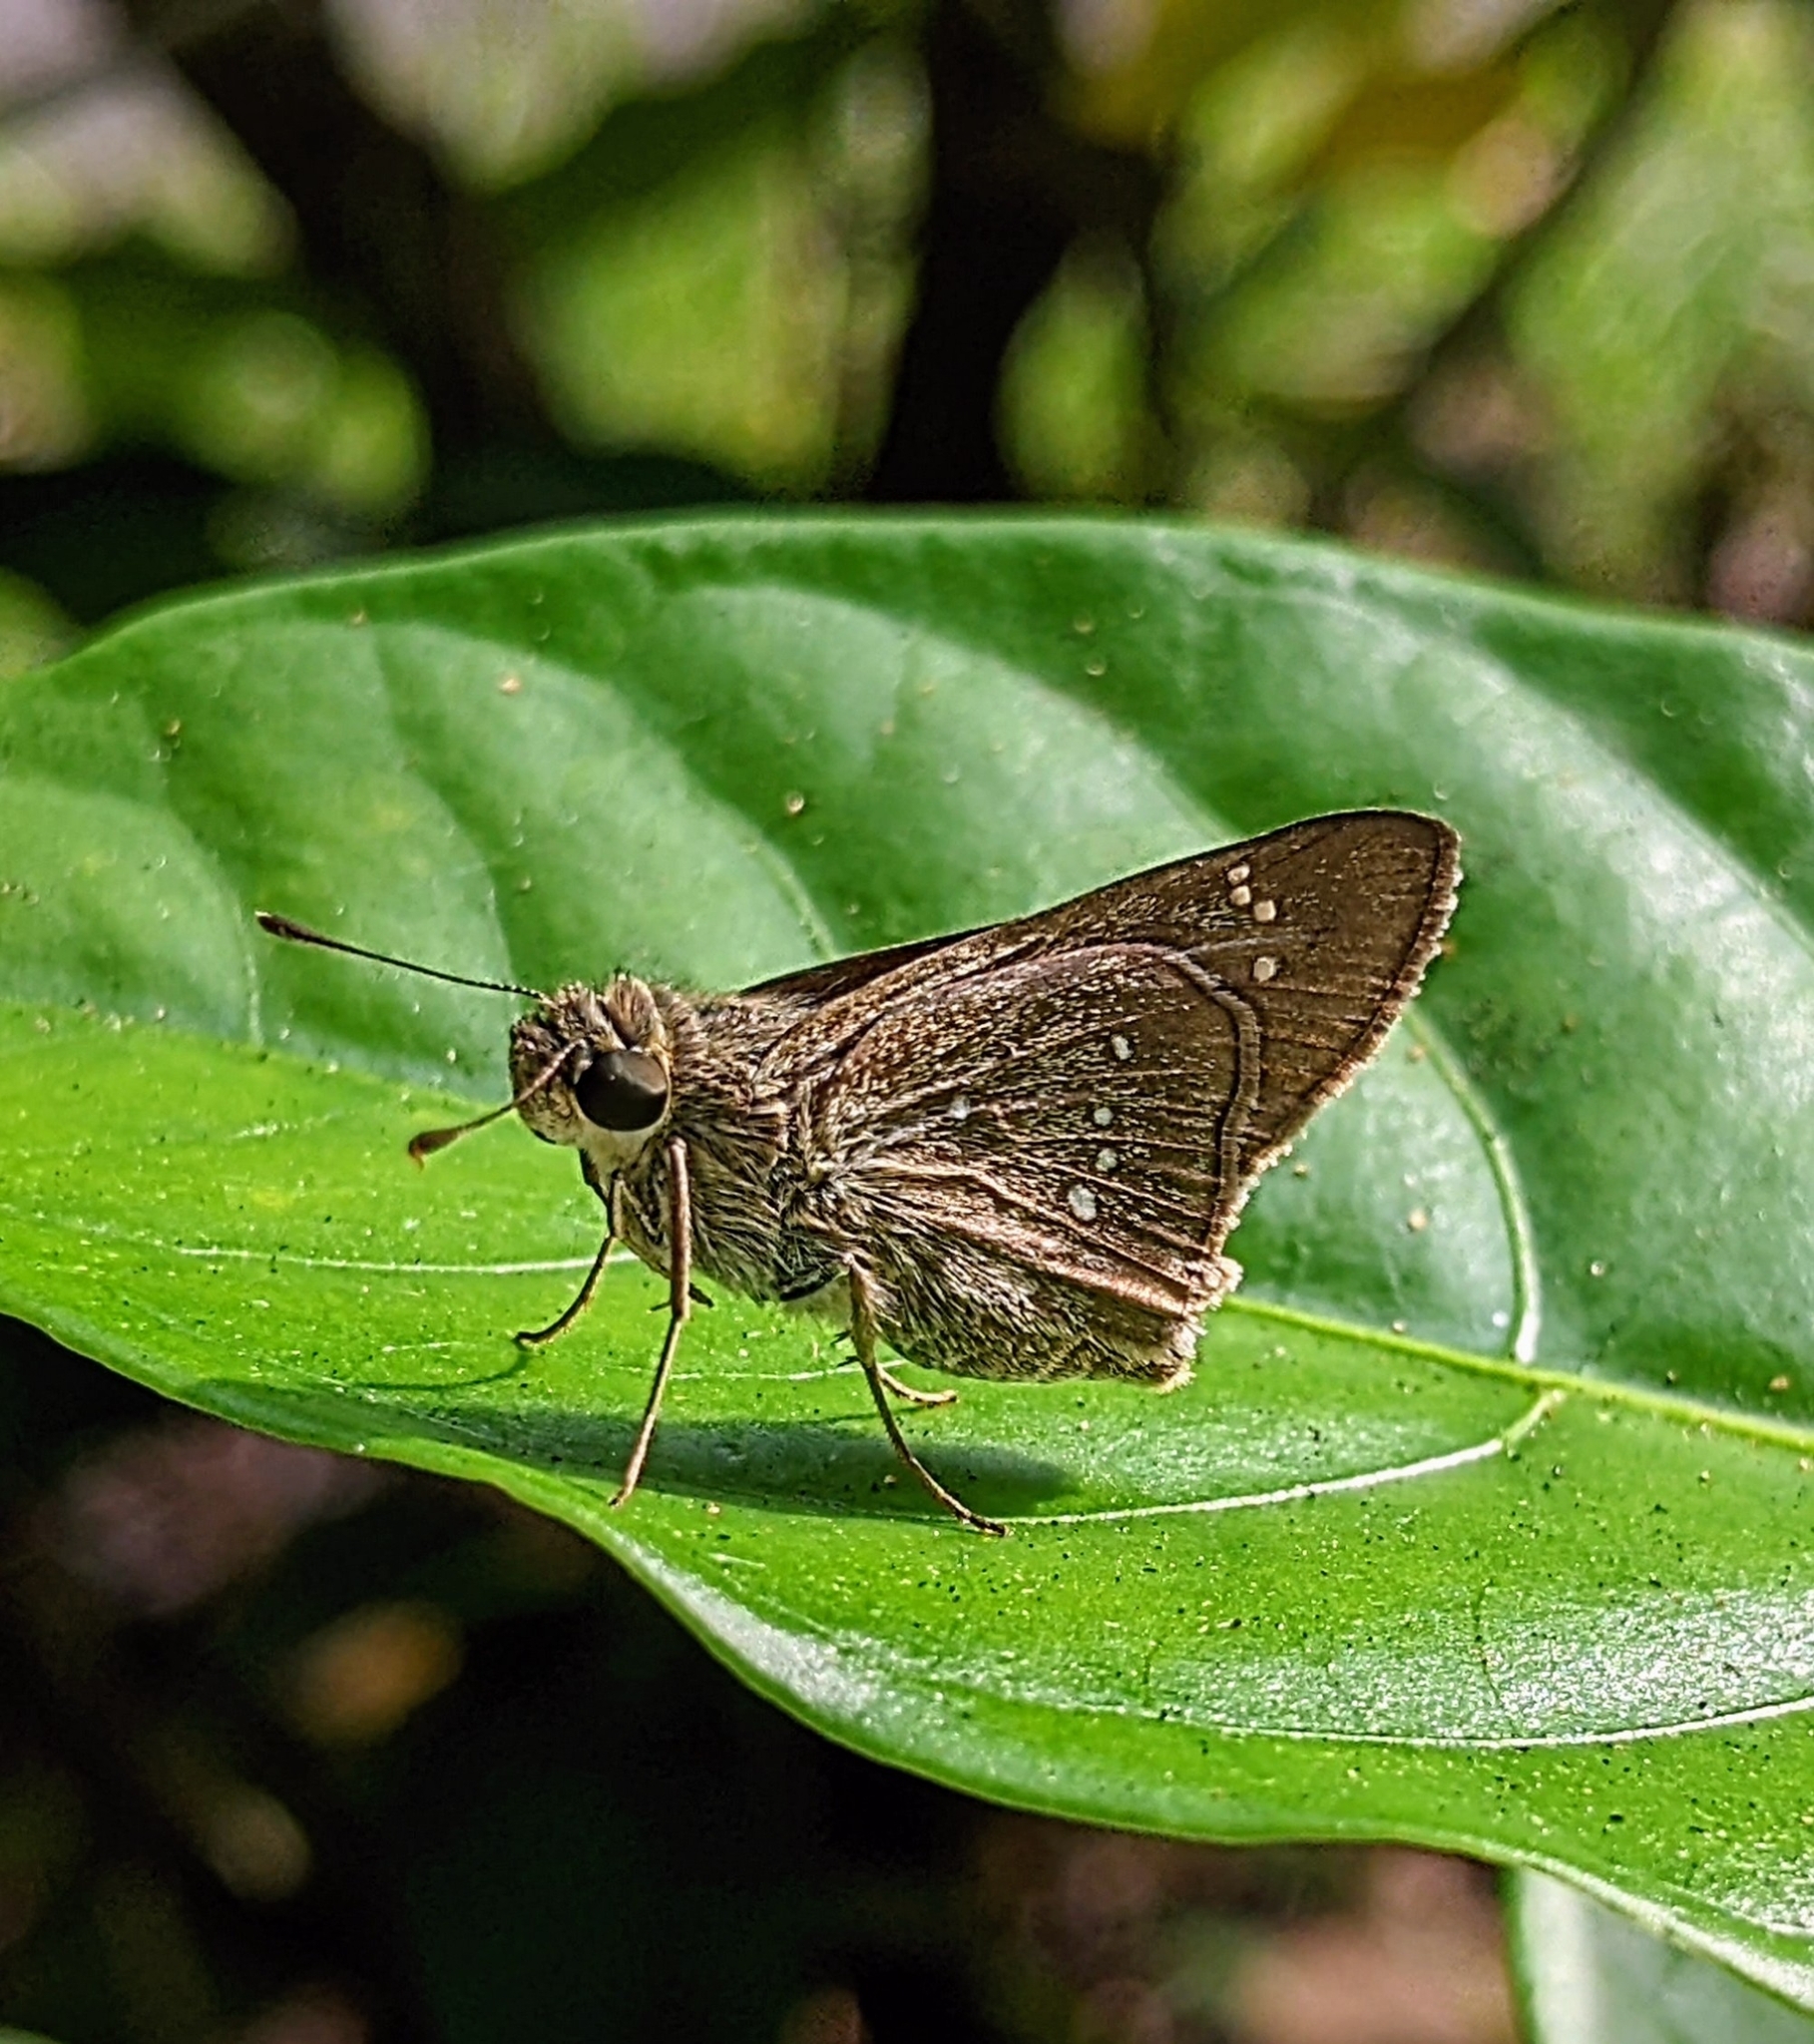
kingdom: Animalia
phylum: Arthropoda
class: Insecta
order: Lepidoptera
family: Hesperiidae
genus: Pelopidas
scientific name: Pelopidas mathias
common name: Black-branded swift
